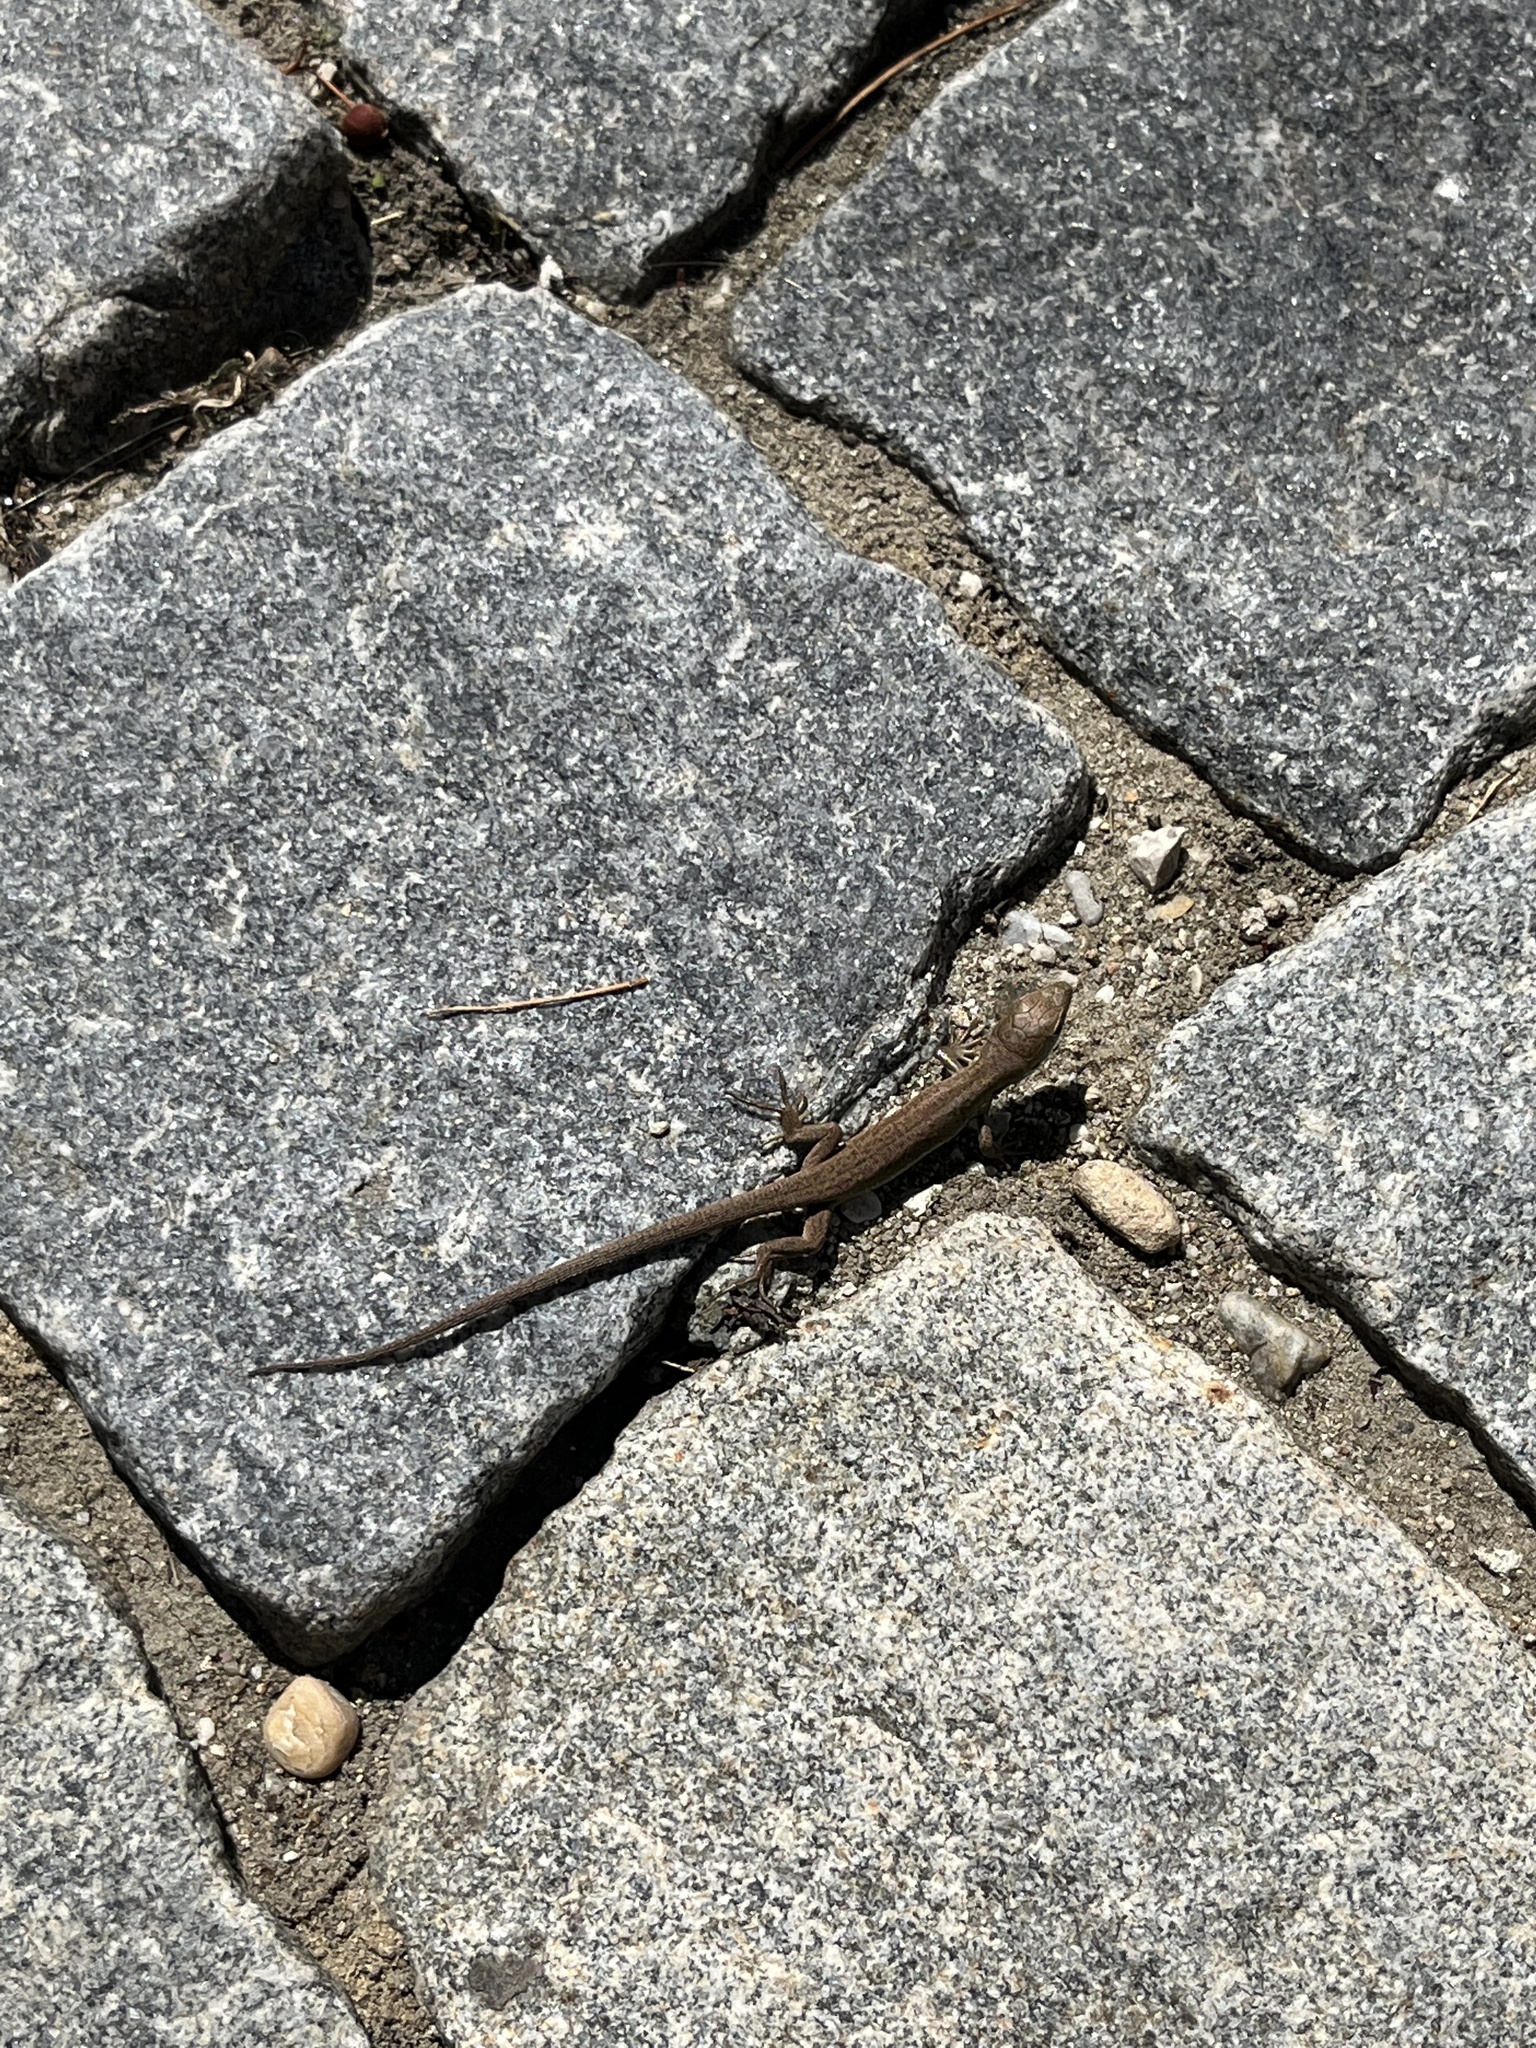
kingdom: Animalia
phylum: Chordata
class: Squamata
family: Lacertidae
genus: Podarcis
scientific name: Podarcis muralis
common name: Common wall lizard
